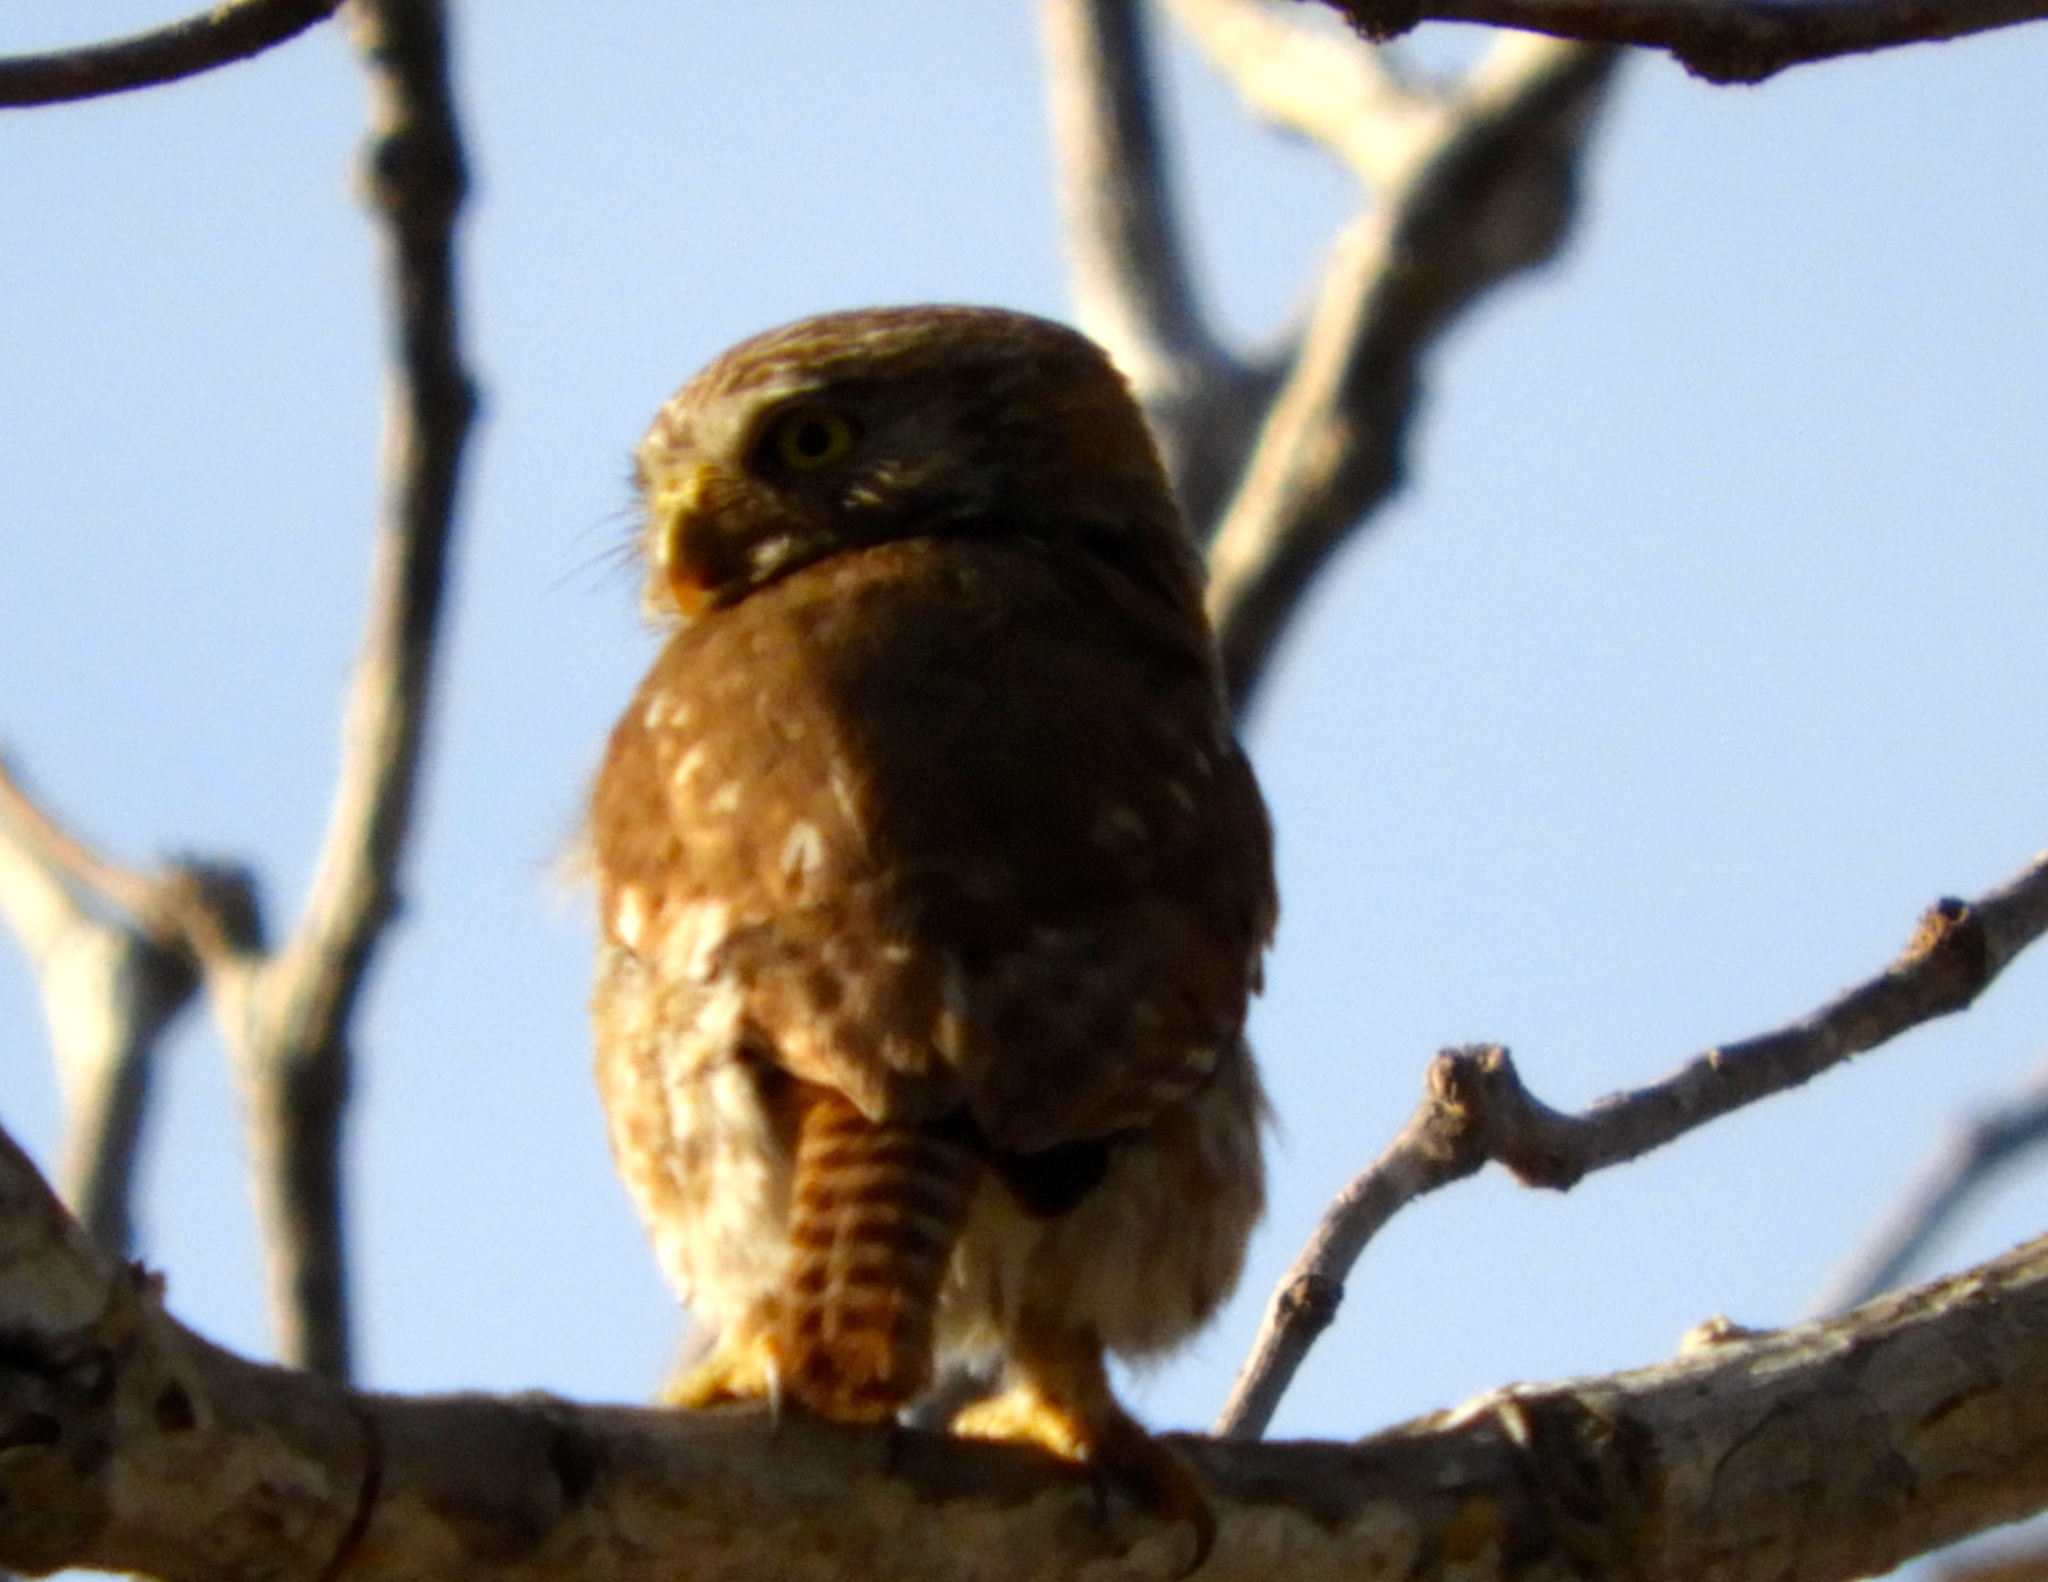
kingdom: Animalia
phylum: Chordata
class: Aves
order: Strigiformes
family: Strigidae
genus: Glaucidium
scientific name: Glaucidium brasilianum
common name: Ferruginous pygmy-owl
